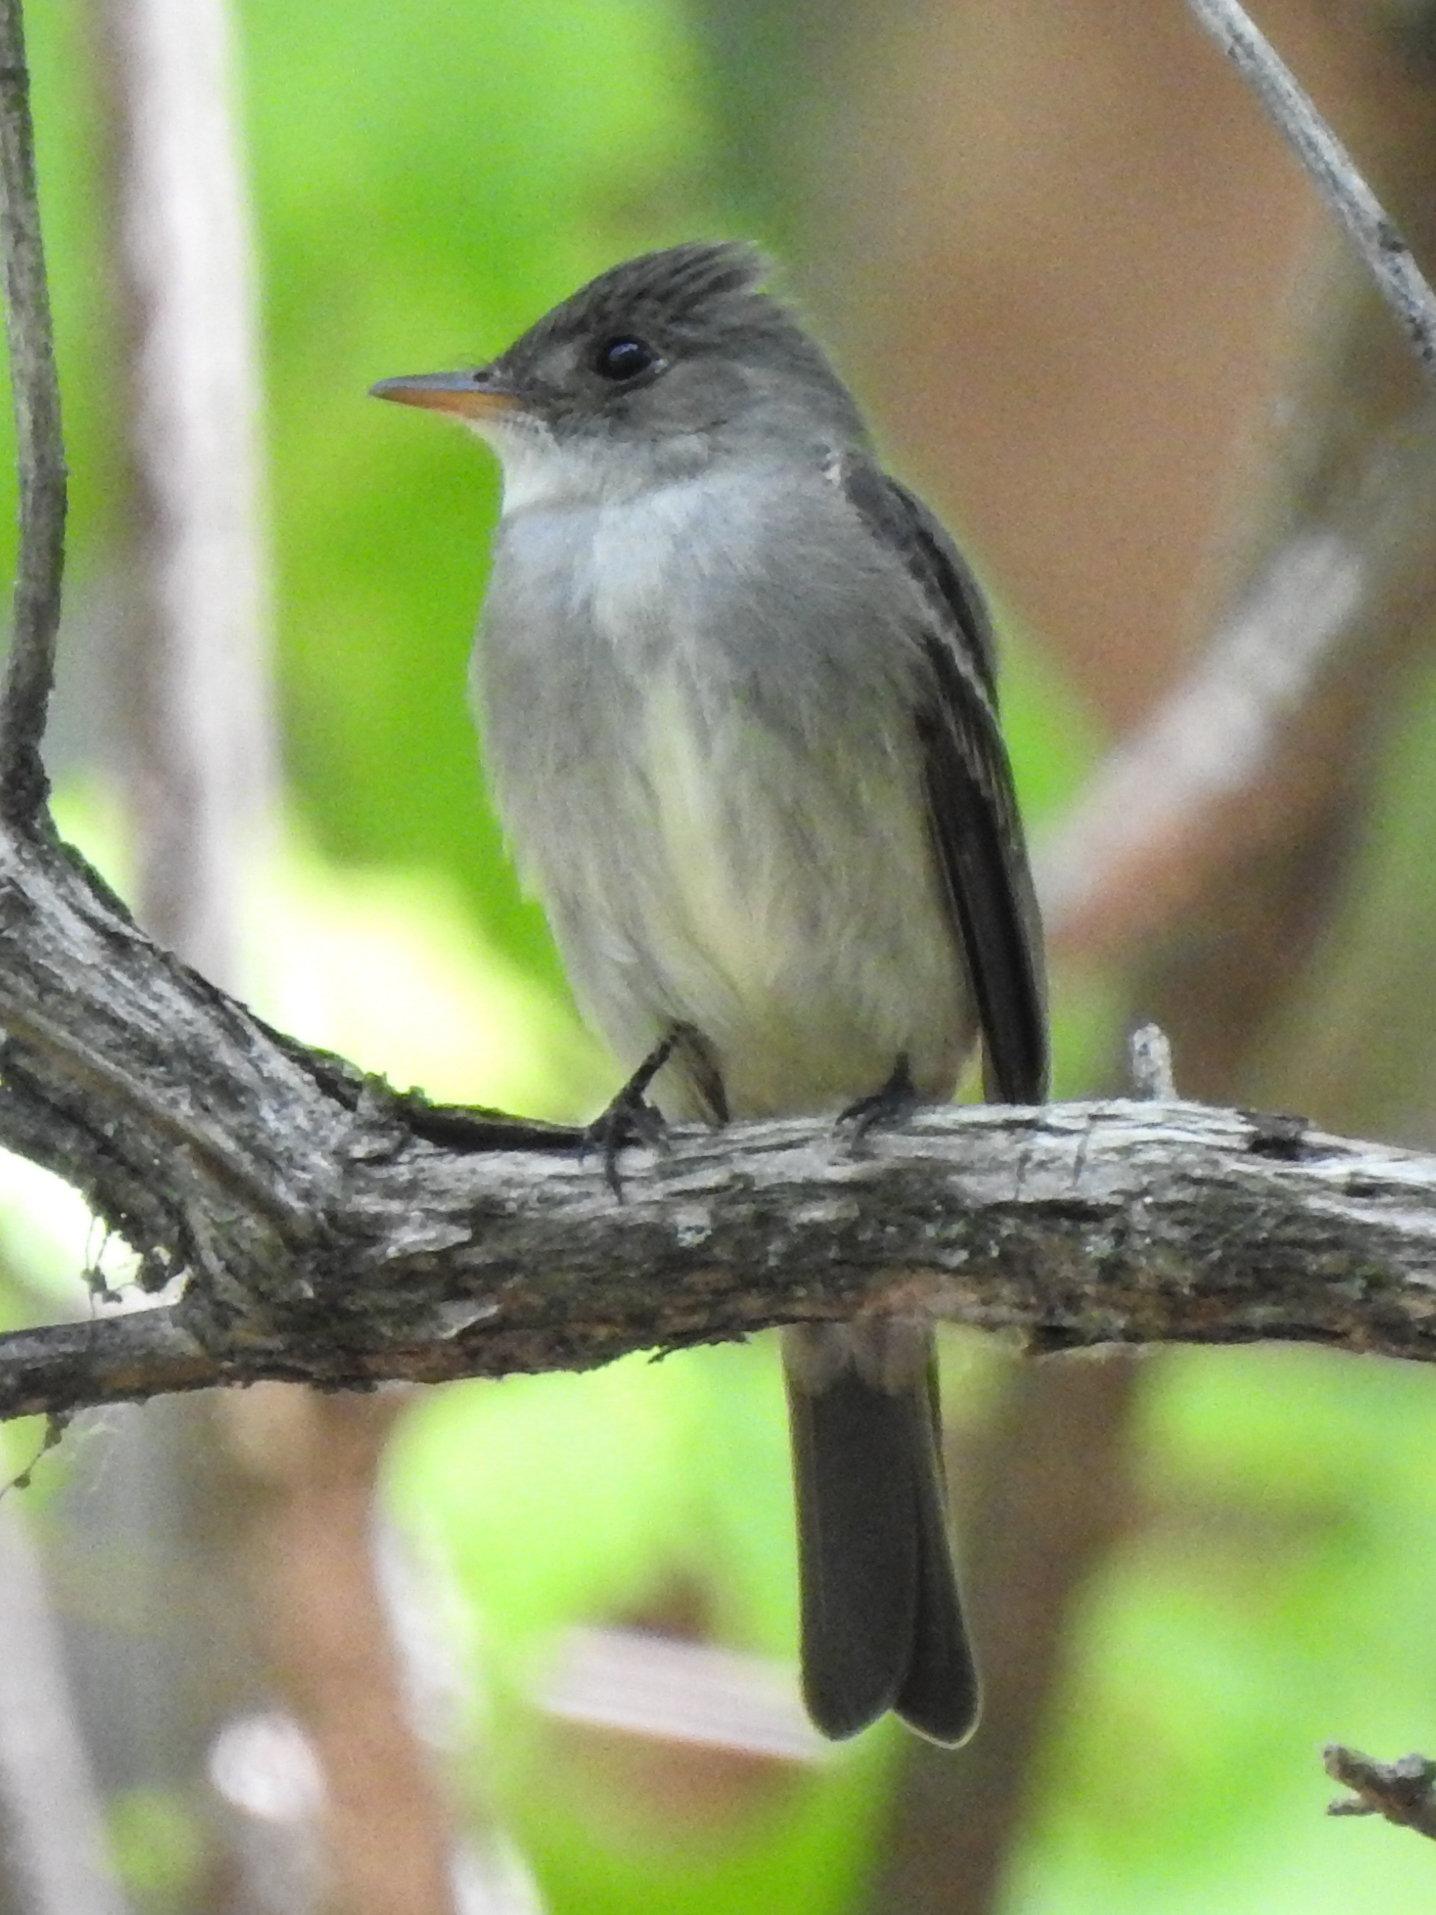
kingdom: Animalia
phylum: Chordata
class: Aves
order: Passeriformes
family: Tyrannidae
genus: Contopus
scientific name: Contopus virens
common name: Eastern wood-pewee
